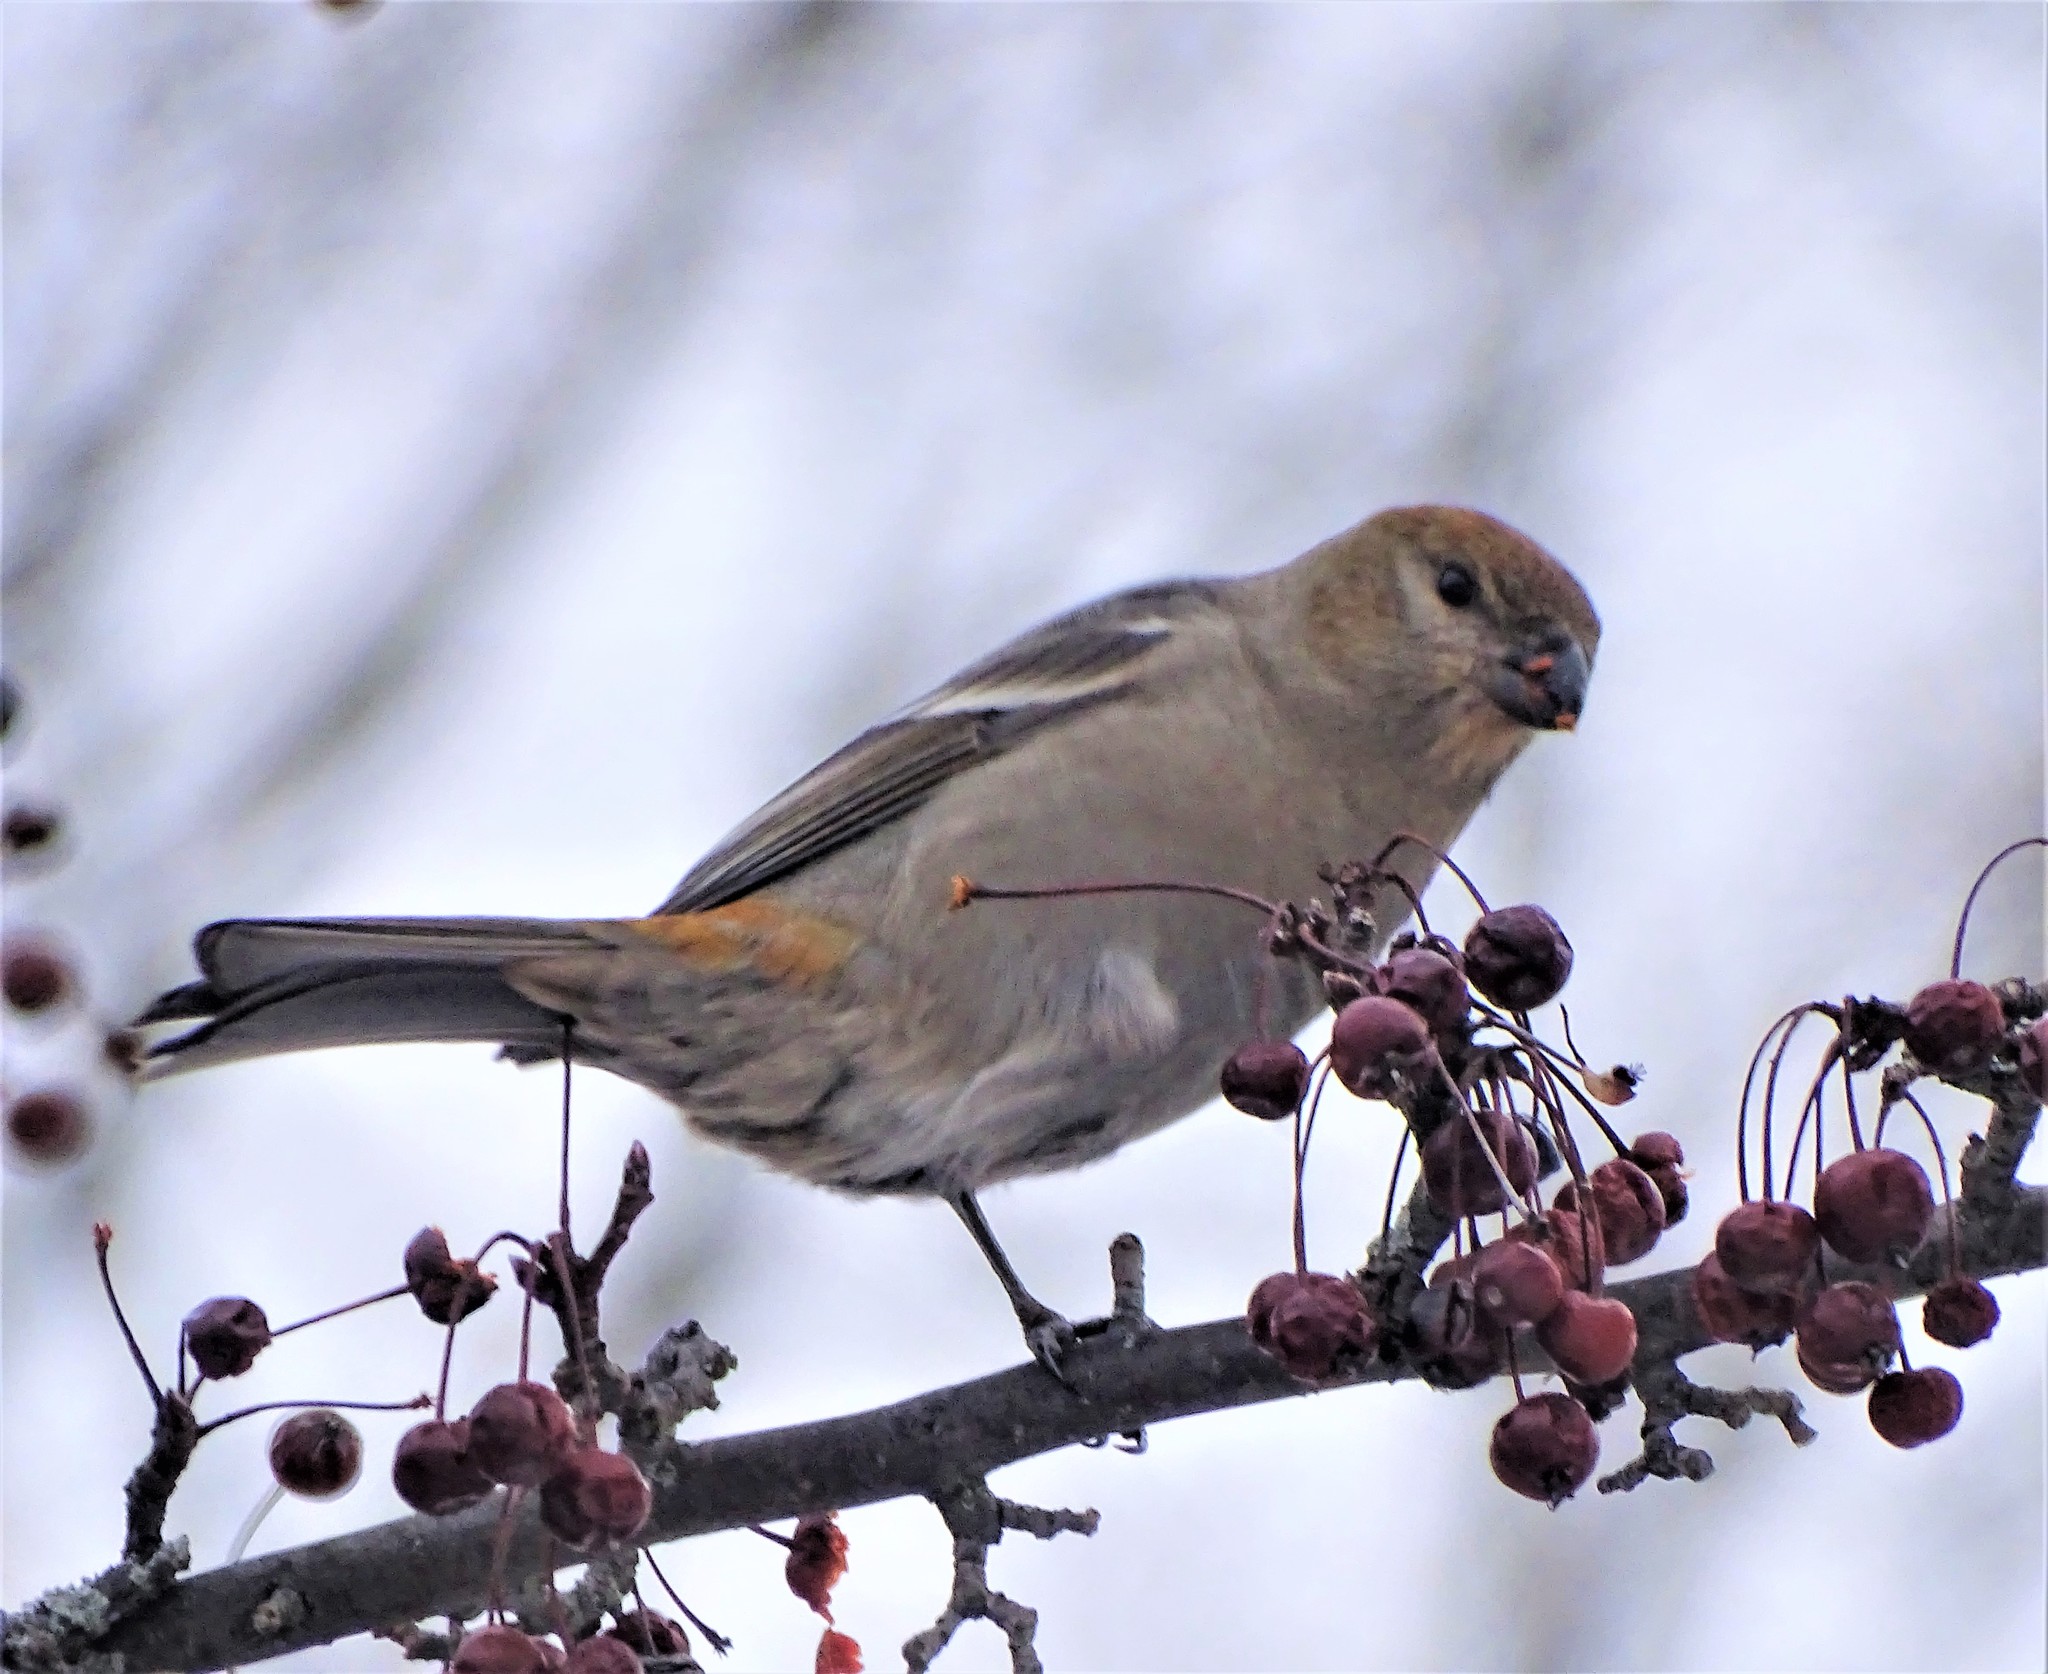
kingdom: Animalia
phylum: Chordata
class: Aves
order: Passeriformes
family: Fringillidae
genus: Pinicola
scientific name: Pinicola enucleator
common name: Pine grosbeak
